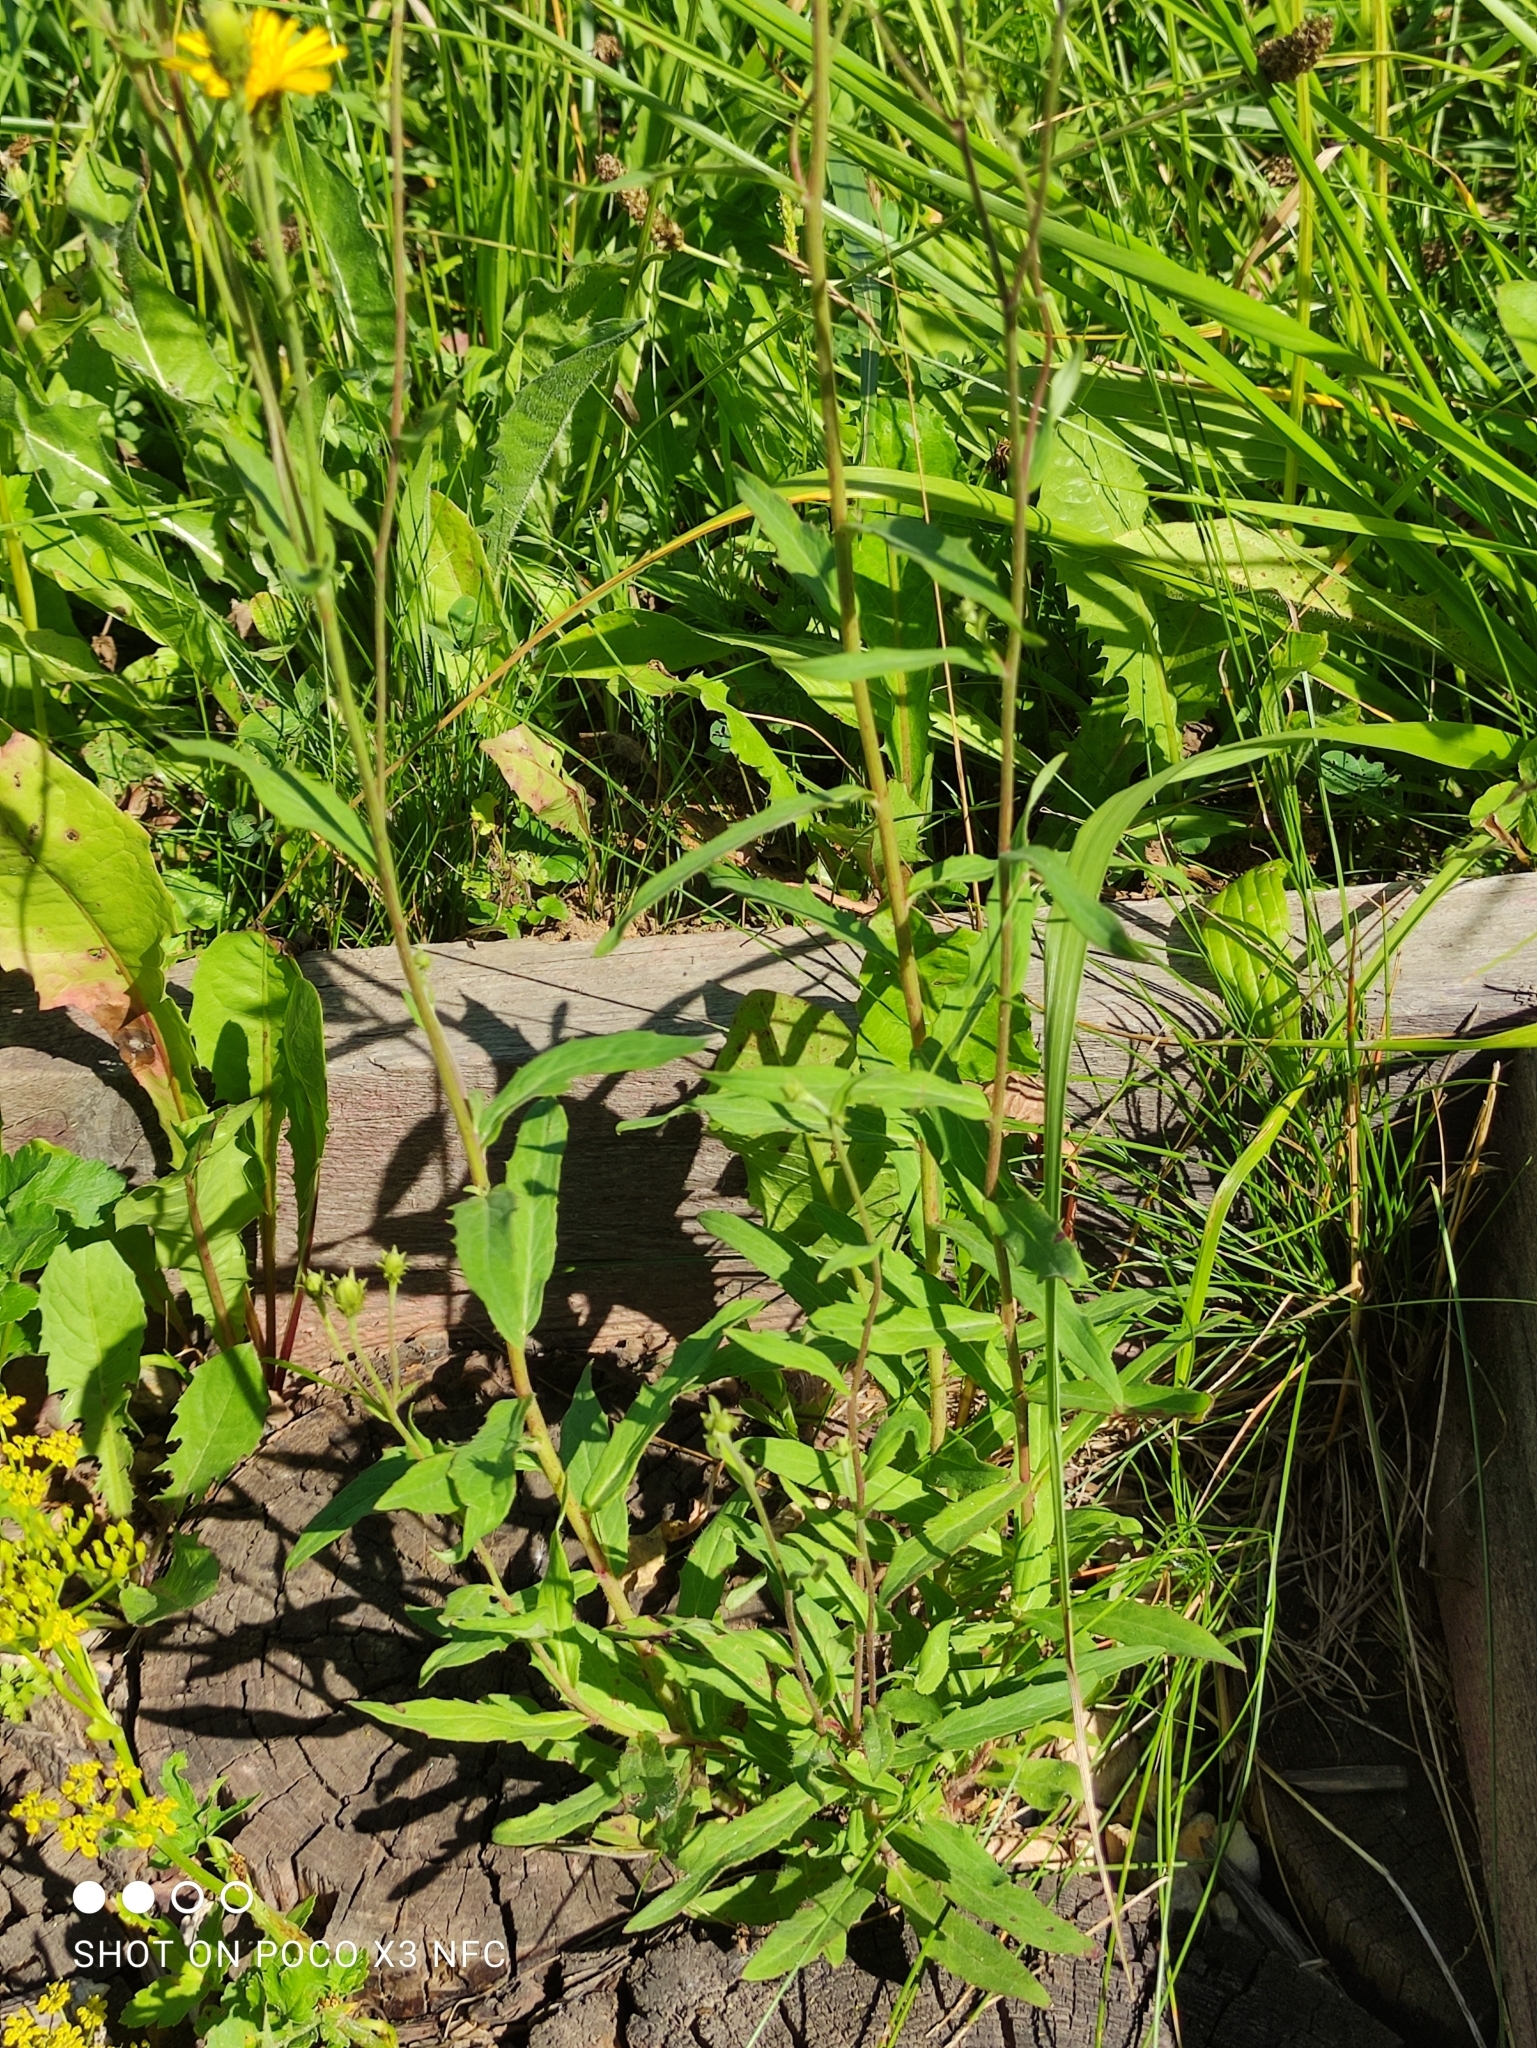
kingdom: Plantae
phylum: Tracheophyta
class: Magnoliopsida
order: Asterales
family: Asteraceae
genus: Hieracium
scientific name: Hieracium umbellatum
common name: Northern hawkweed
